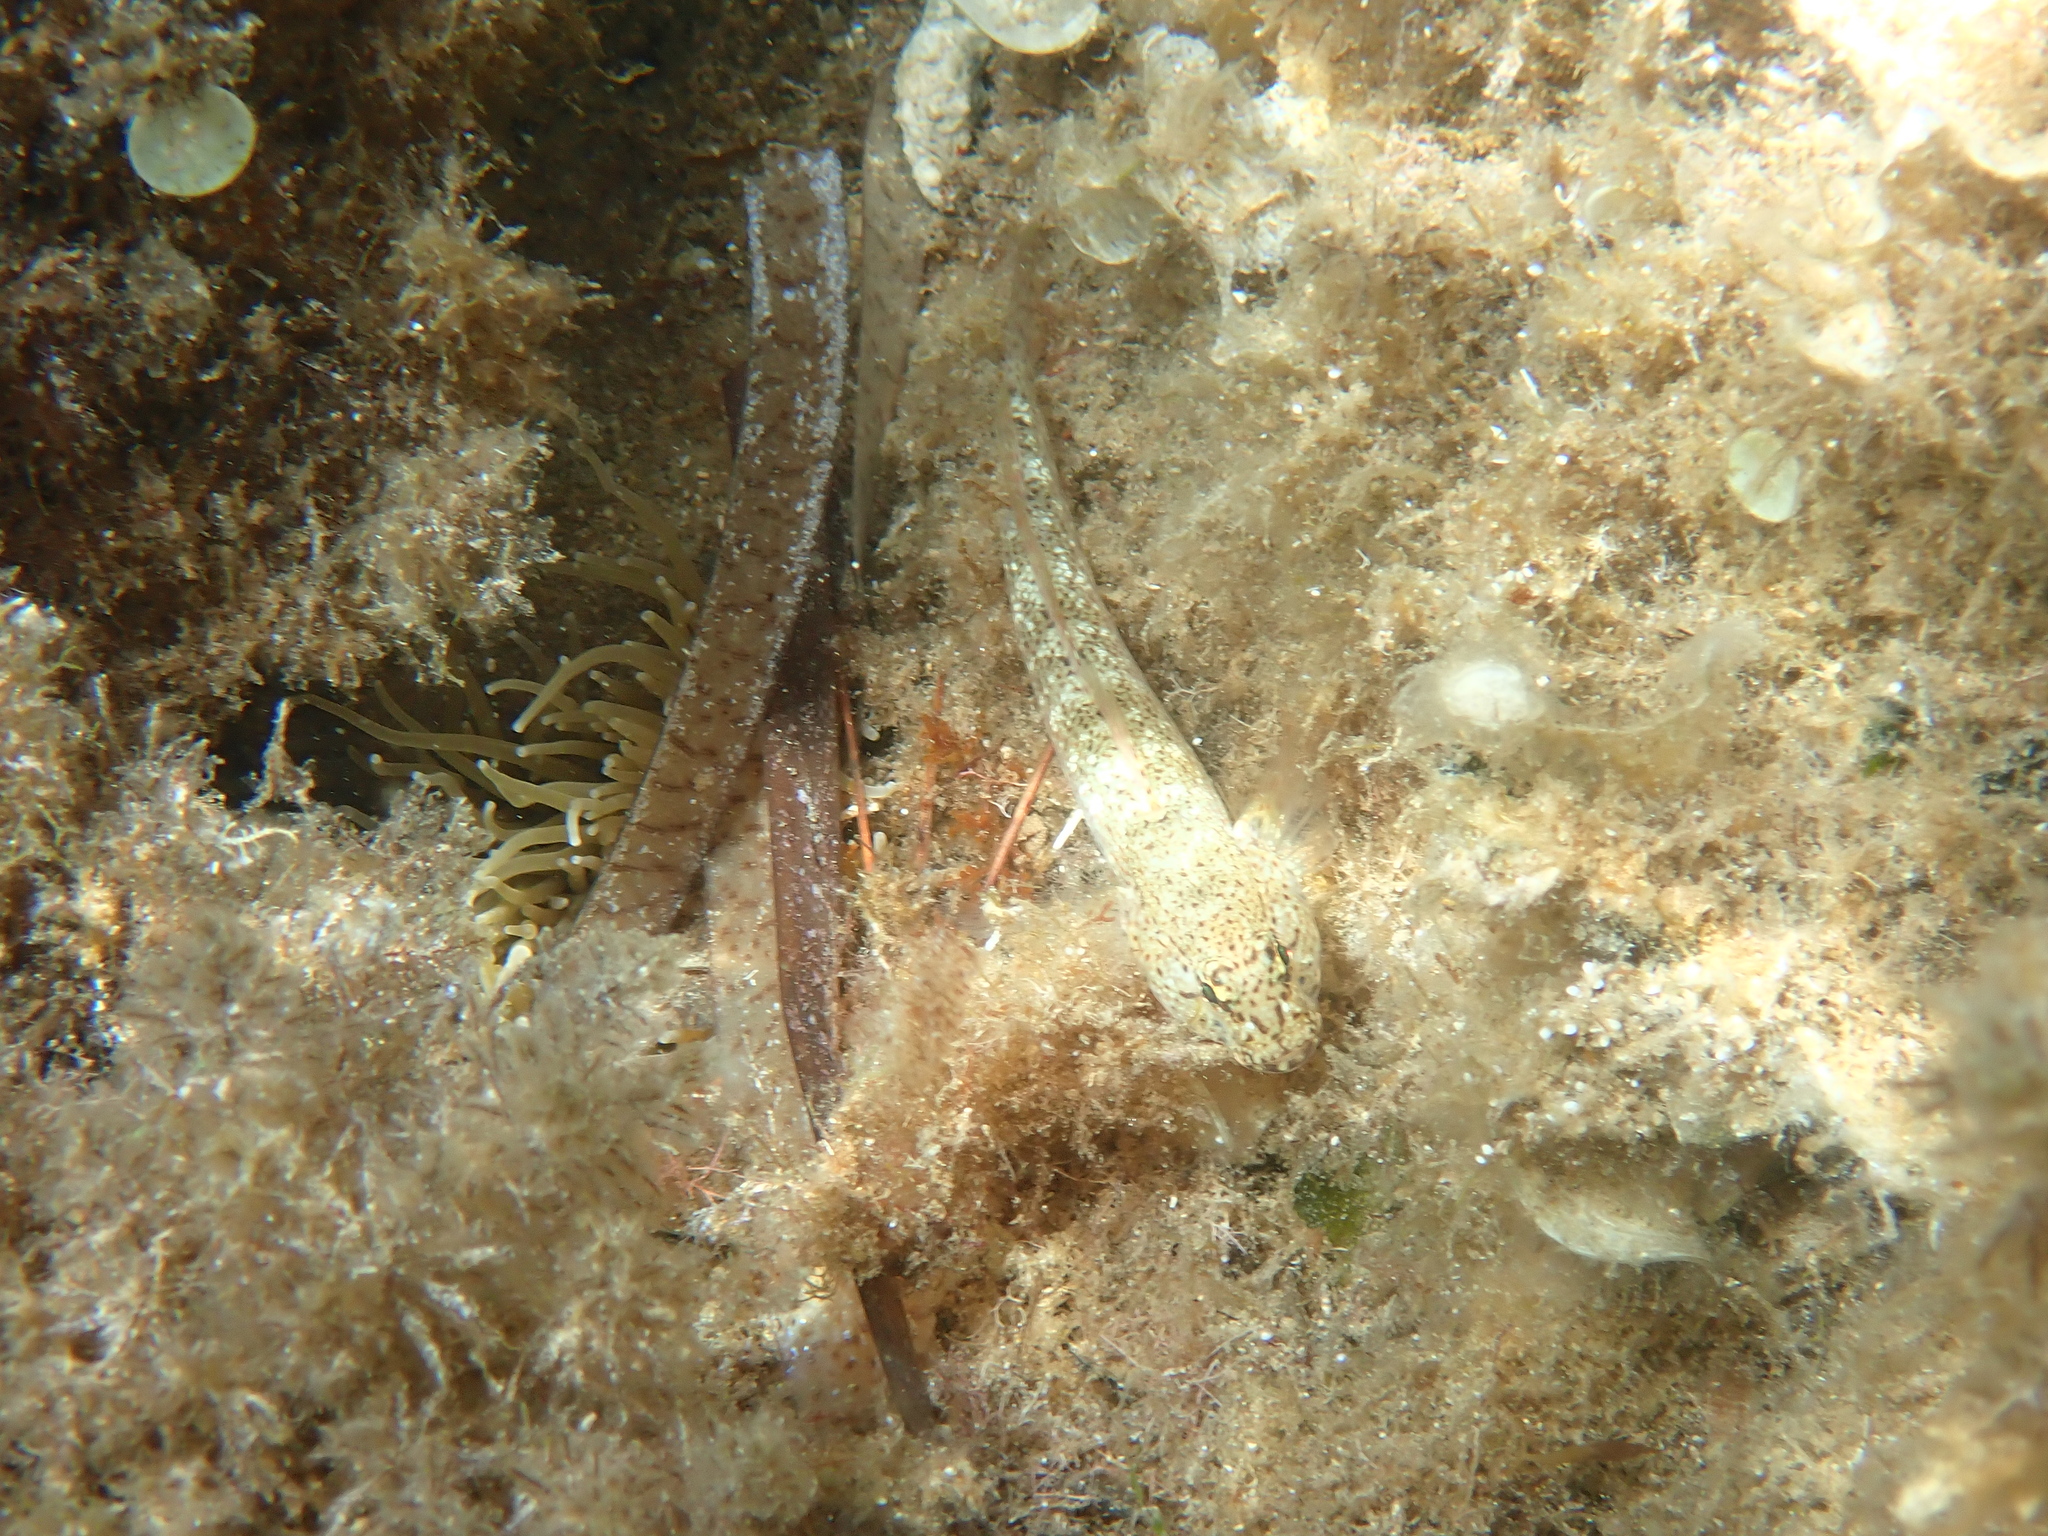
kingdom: Animalia
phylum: Chordata
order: Perciformes
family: Gobiidae
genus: Gobius
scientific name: Gobius incognitus
